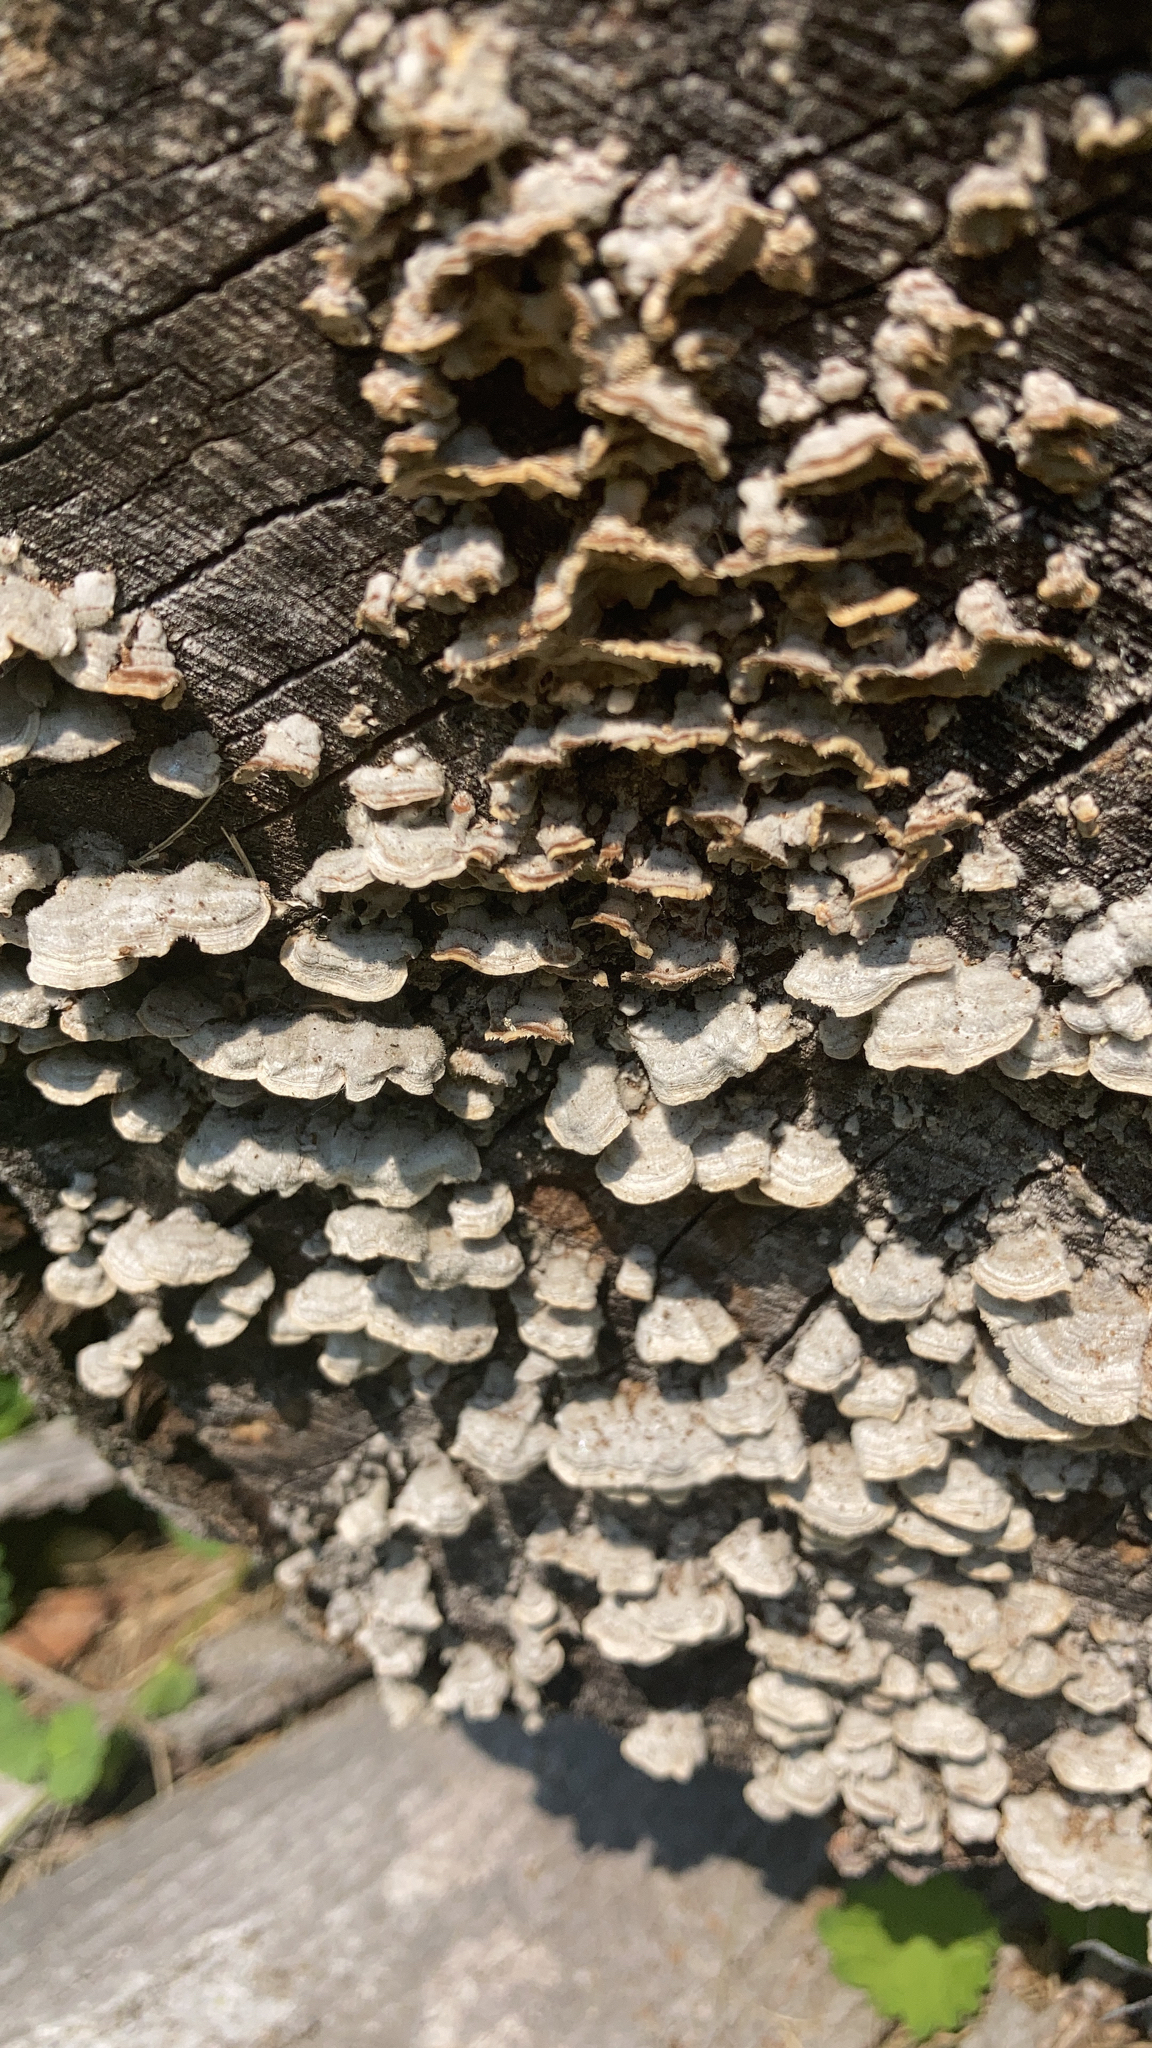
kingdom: Fungi
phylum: Basidiomycota
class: Agaricomycetes
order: Polyporales
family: Polyporaceae
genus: Trametes
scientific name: Trametes versicolor
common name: Turkeytail
